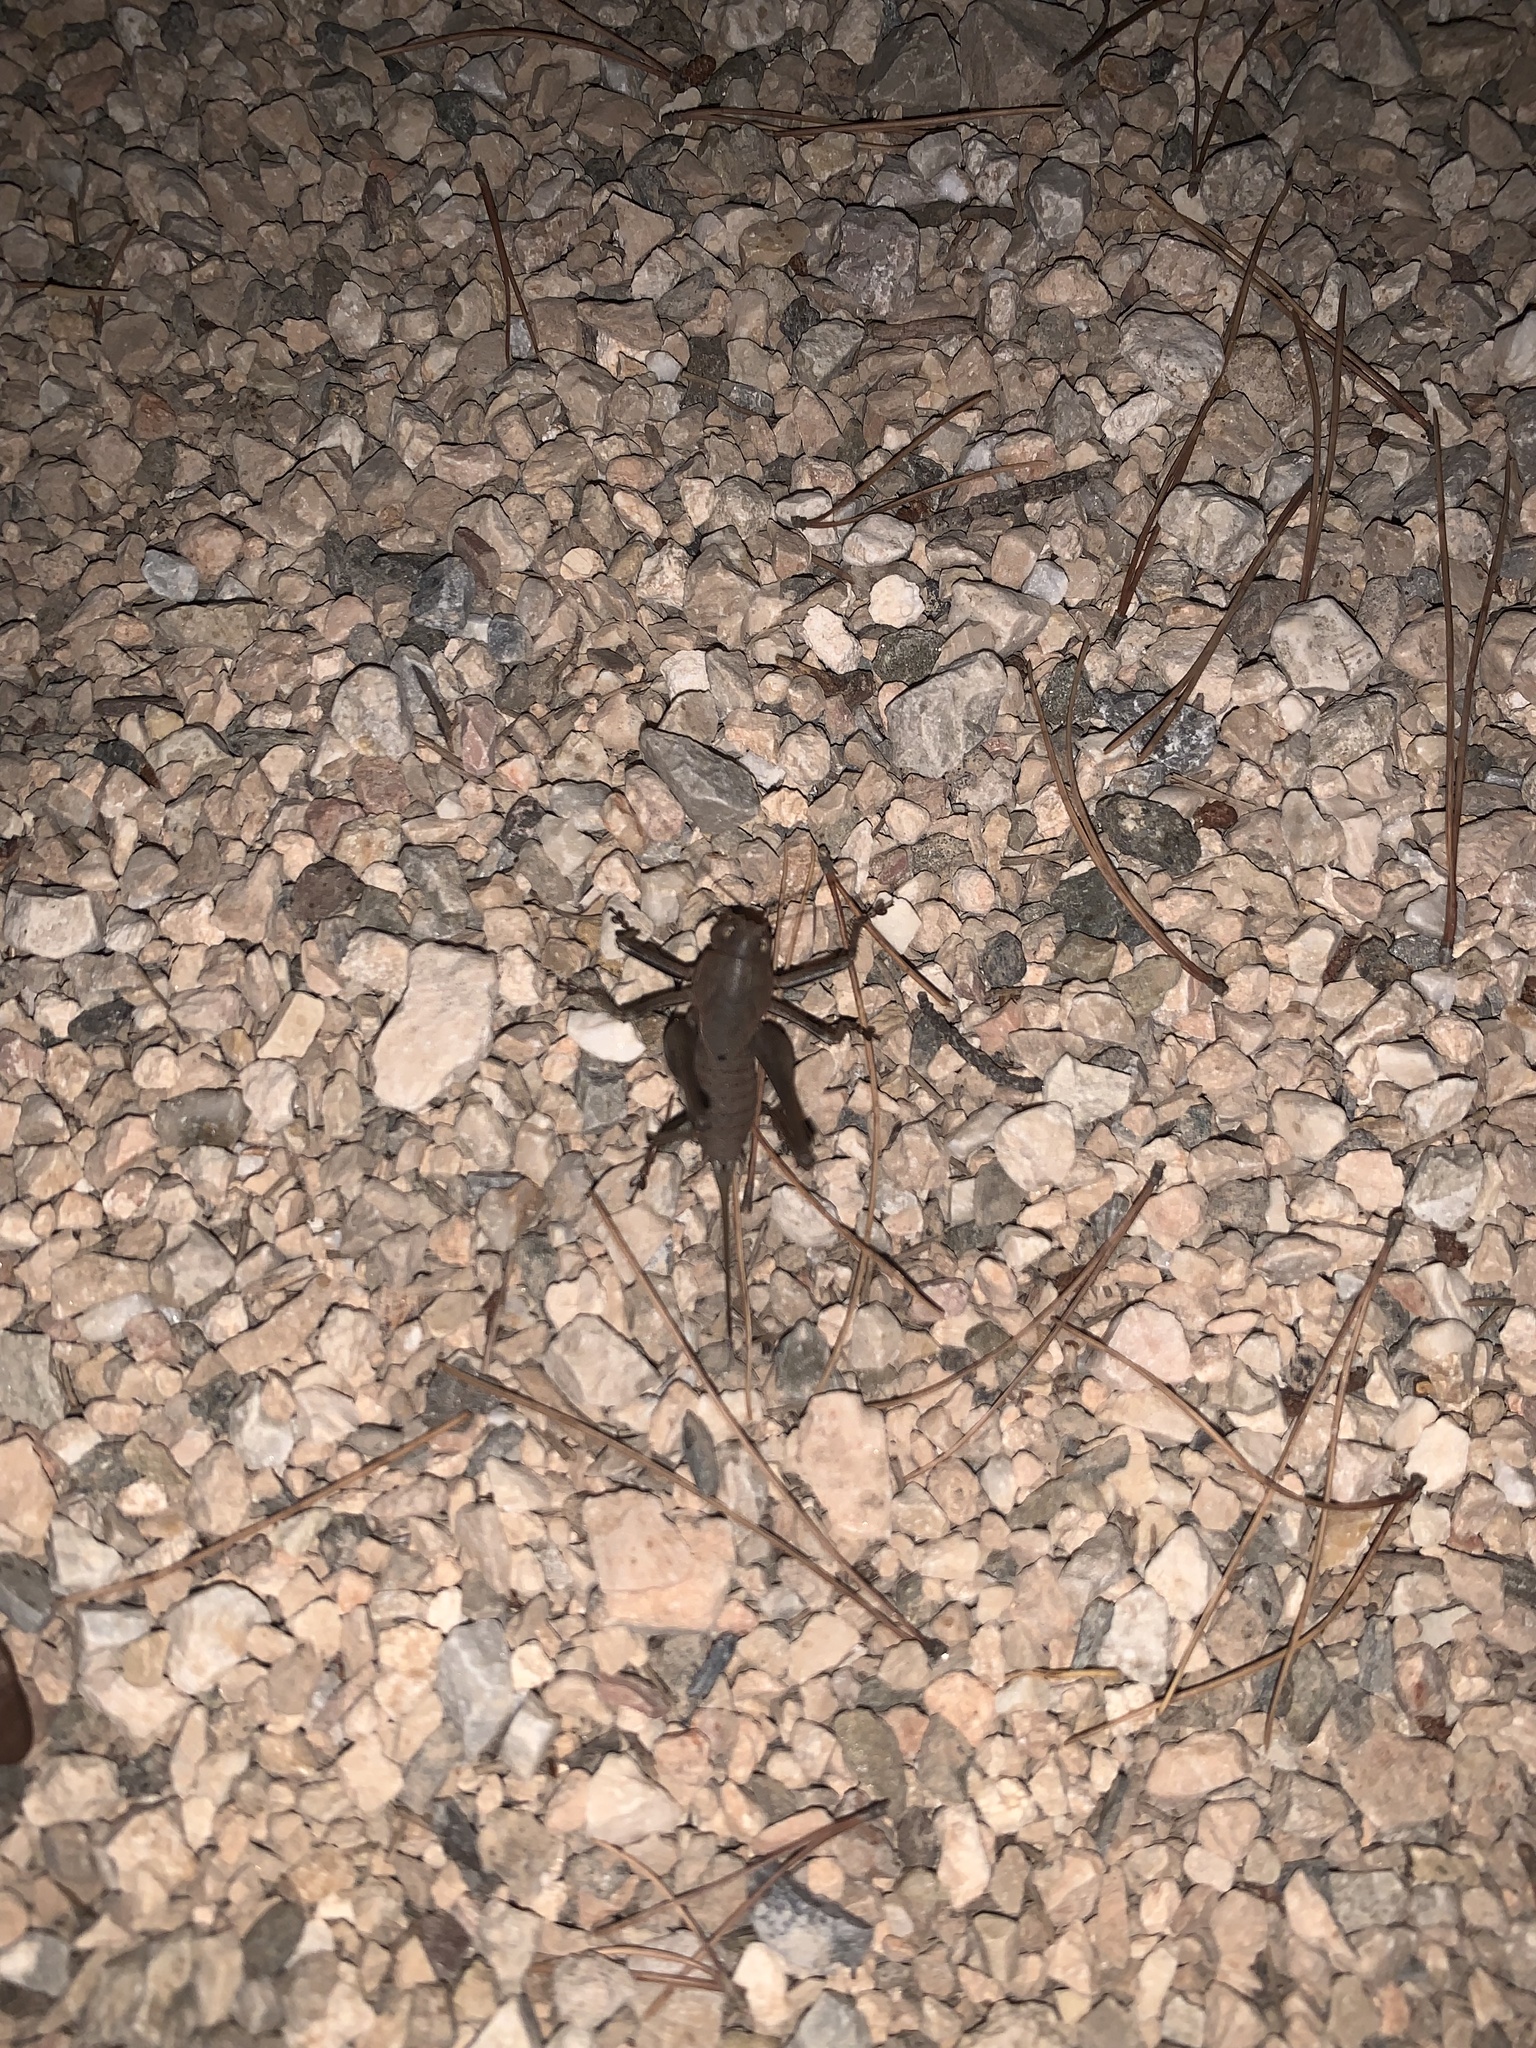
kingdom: Animalia
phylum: Arthropoda
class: Insecta
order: Orthoptera
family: Tettigoniidae
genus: Thyreonotus
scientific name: Thyreonotus corsicus
